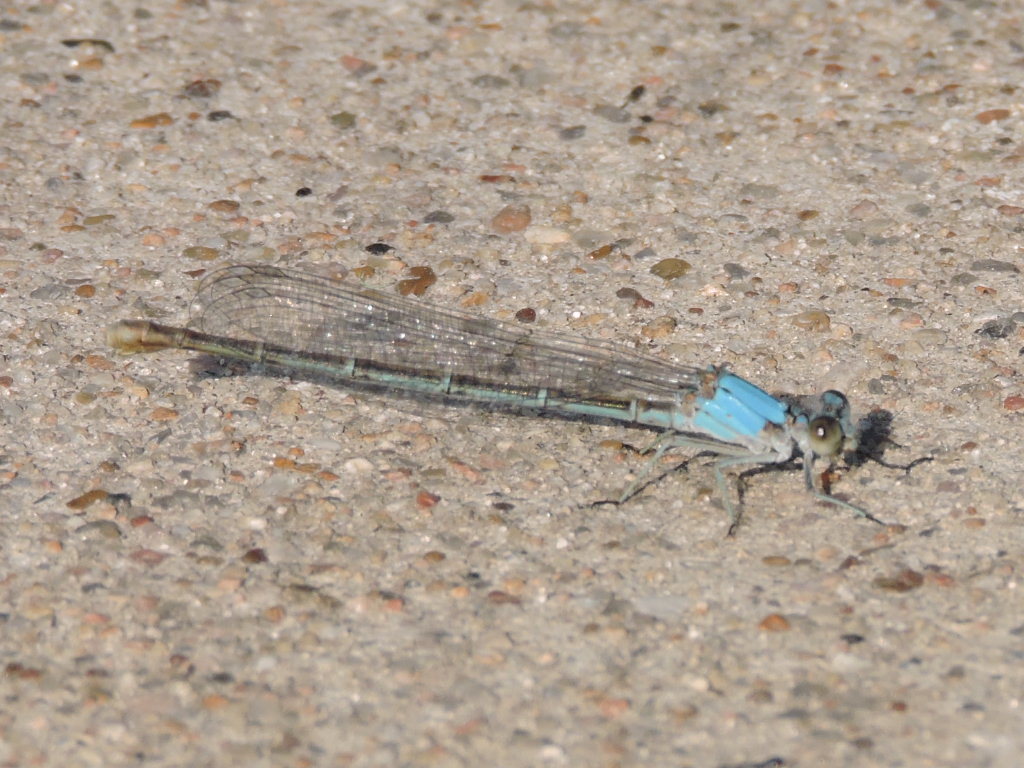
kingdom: Animalia
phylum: Arthropoda
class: Insecta
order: Odonata
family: Coenagrionidae
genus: Argia
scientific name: Argia moesta
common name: Powdered dancer
